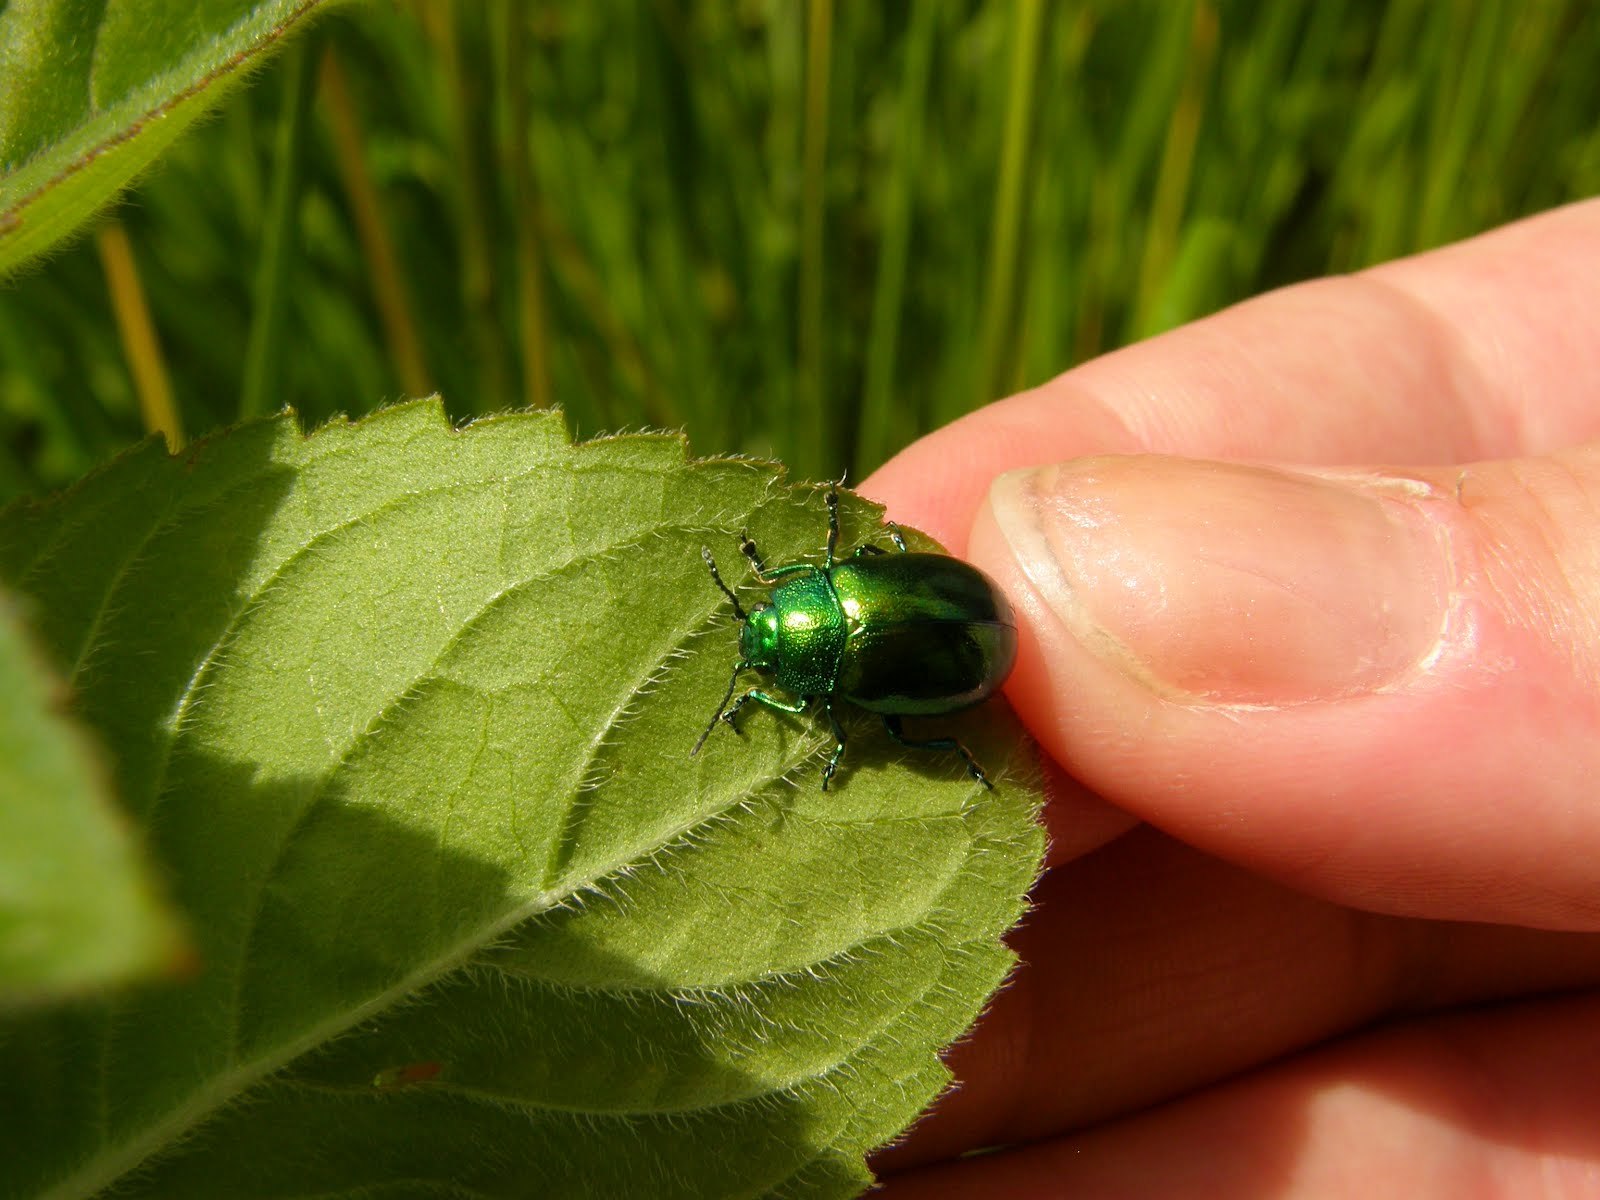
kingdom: Animalia
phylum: Arthropoda
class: Insecta
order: Coleoptera
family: Chrysomelidae
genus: Chrysolina
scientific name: Chrysolina herbacea
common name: Mint leaf beatle
